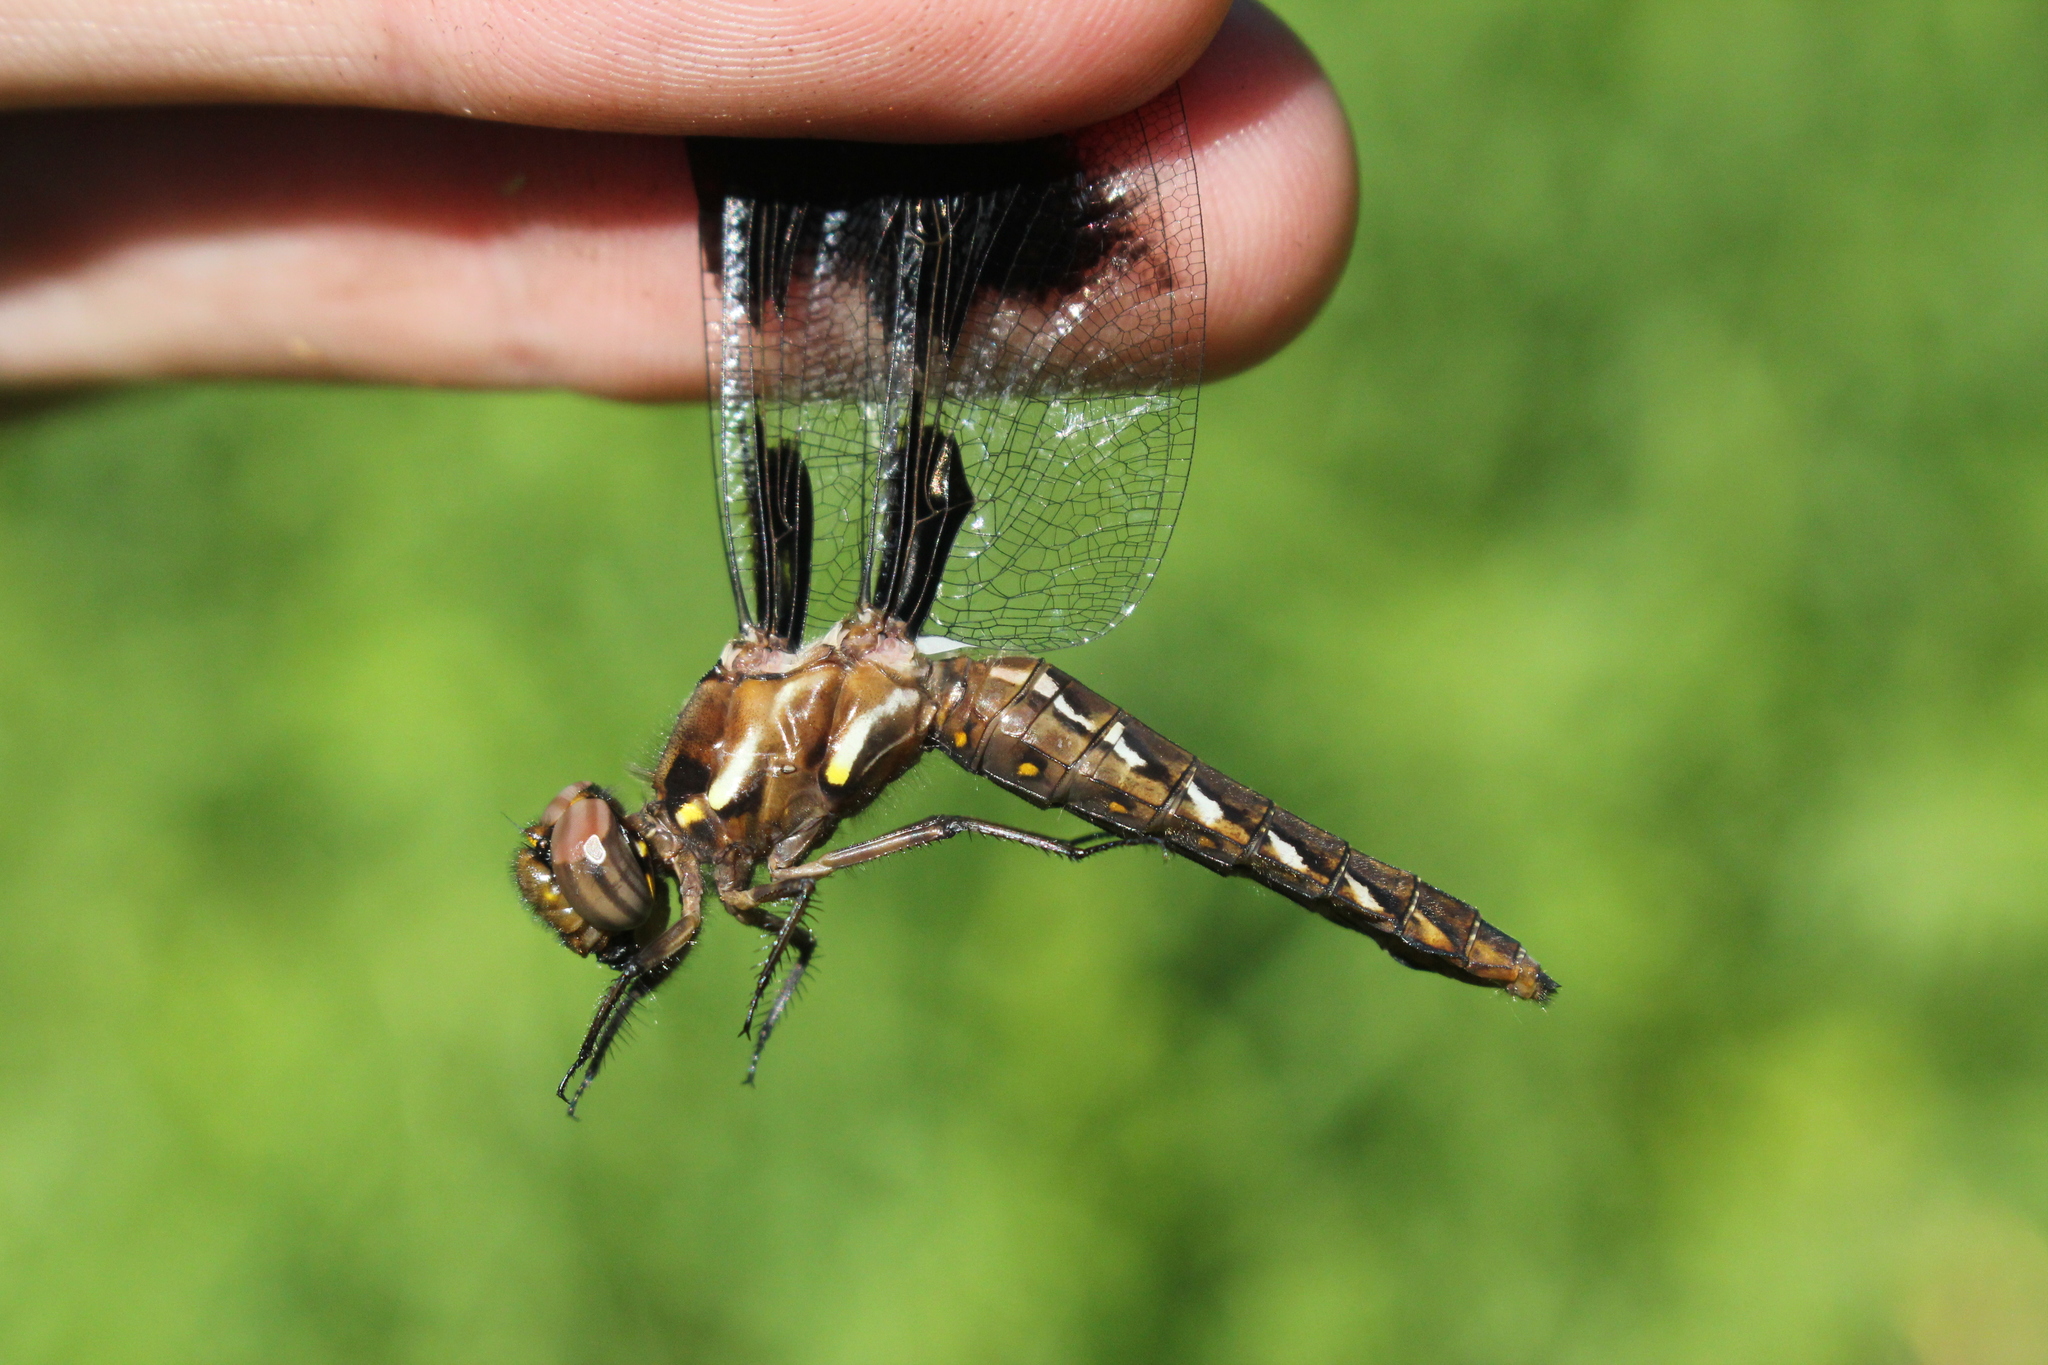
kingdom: Animalia
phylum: Arthropoda
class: Insecta
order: Odonata
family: Libellulidae
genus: Plathemis
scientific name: Plathemis lydia
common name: Common whitetail
